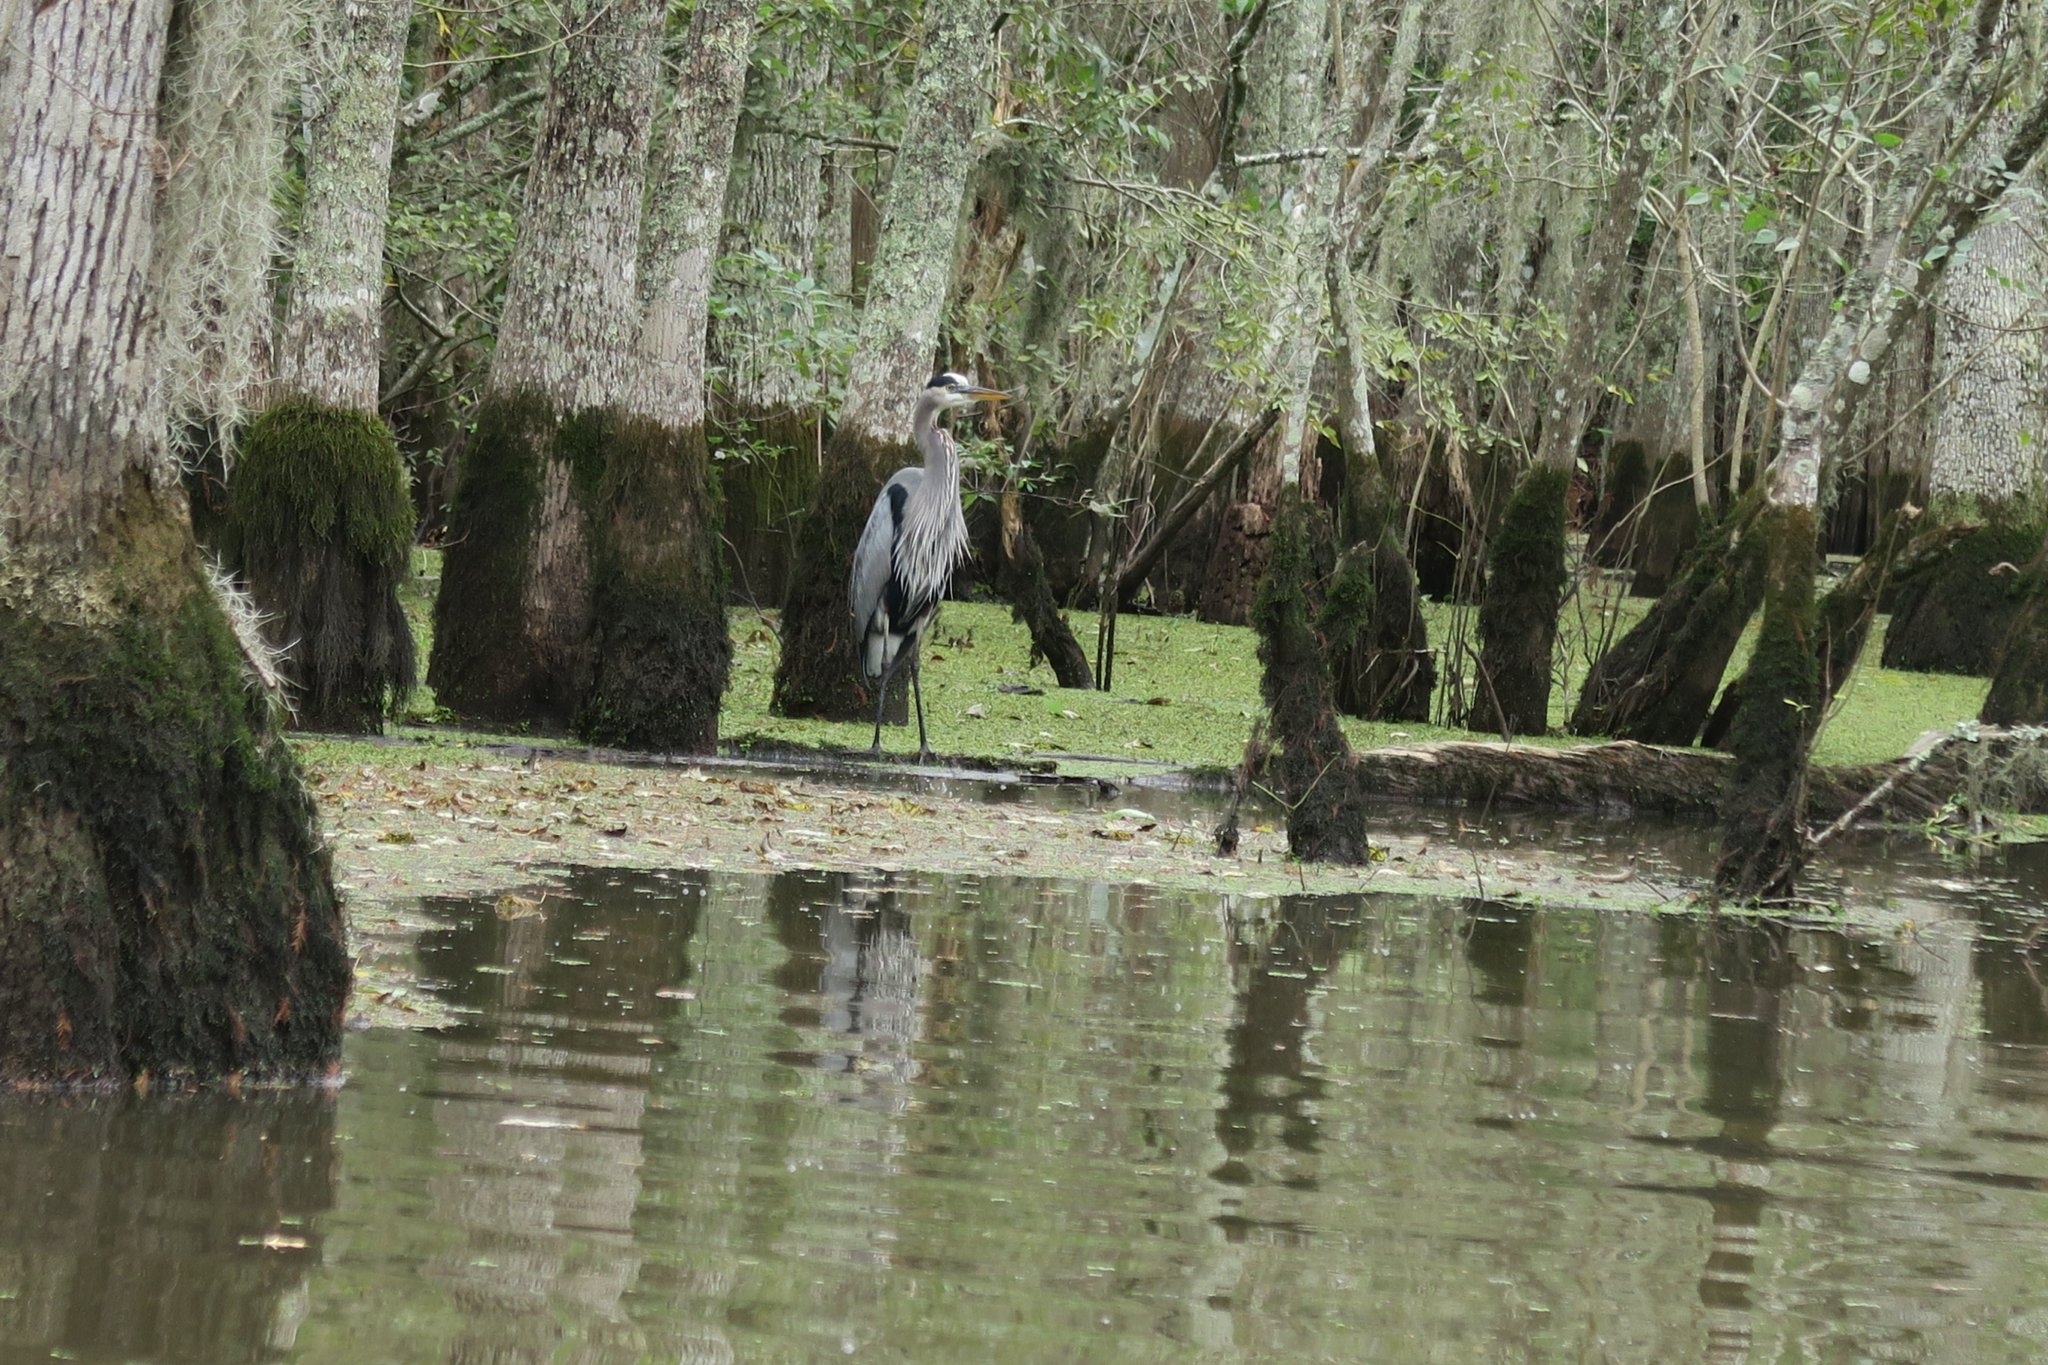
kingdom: Animalia
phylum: Chordata
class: Aves
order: Pelecaniformes
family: Ardeidae
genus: Ardea
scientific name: Ardea herodias
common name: Great blue heron
